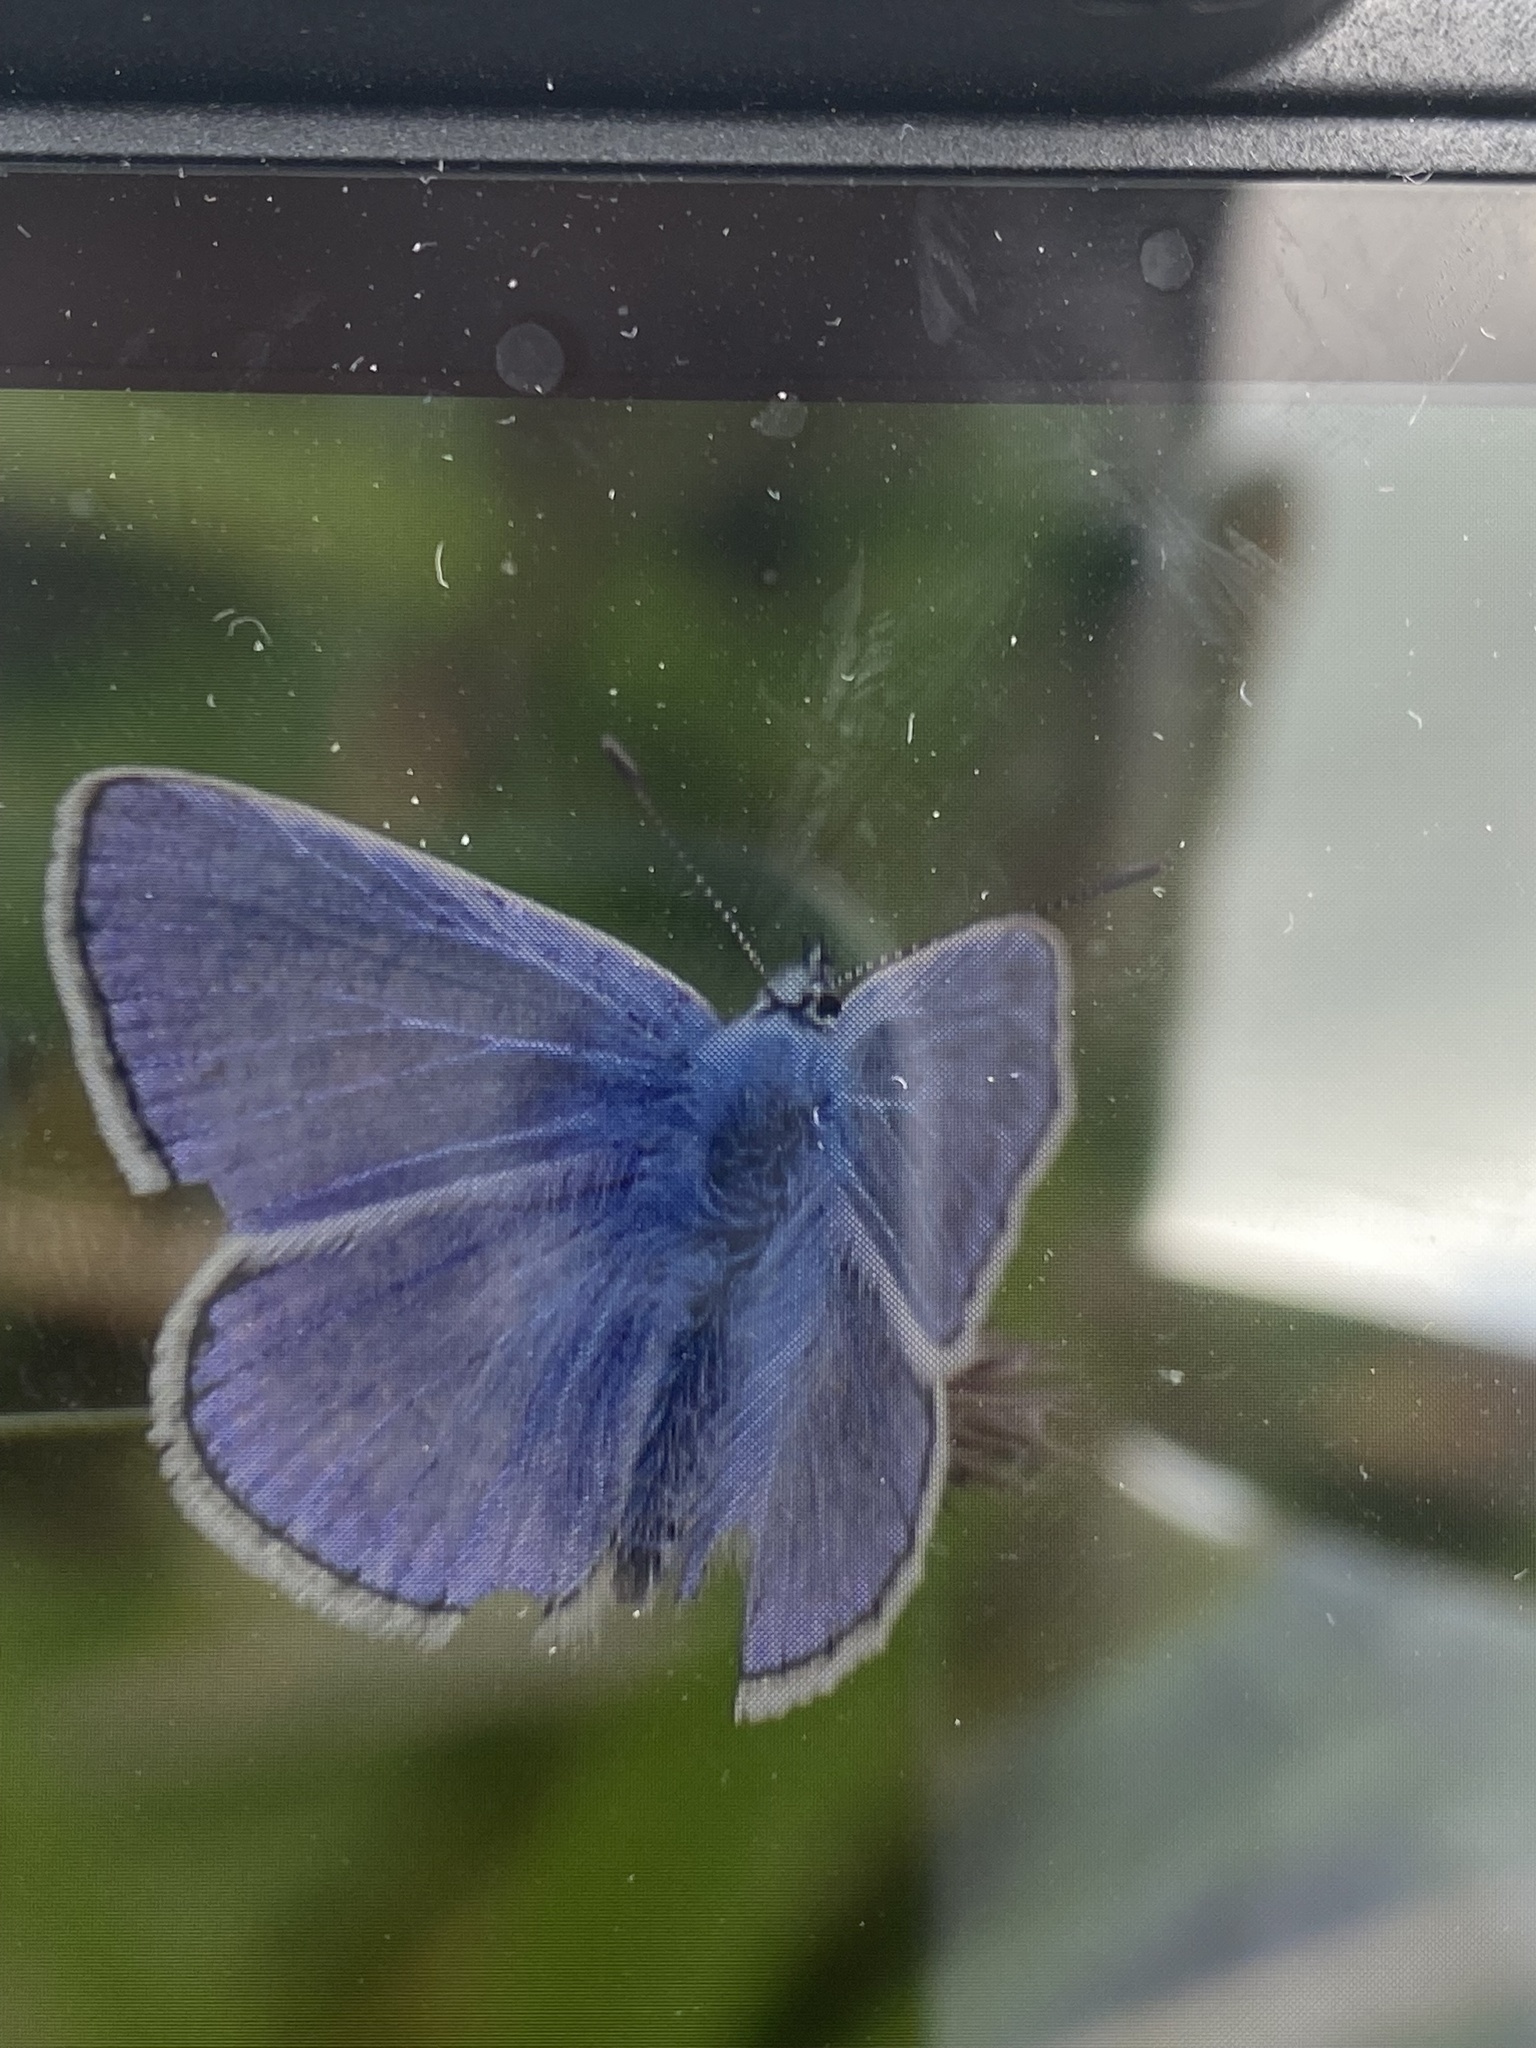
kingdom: Animalia
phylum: Arthropoda
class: Insecta
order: Lepidoptera
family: Lycaenidae
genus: Polyommatus
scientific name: Polyommatus icarus
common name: Common blue
